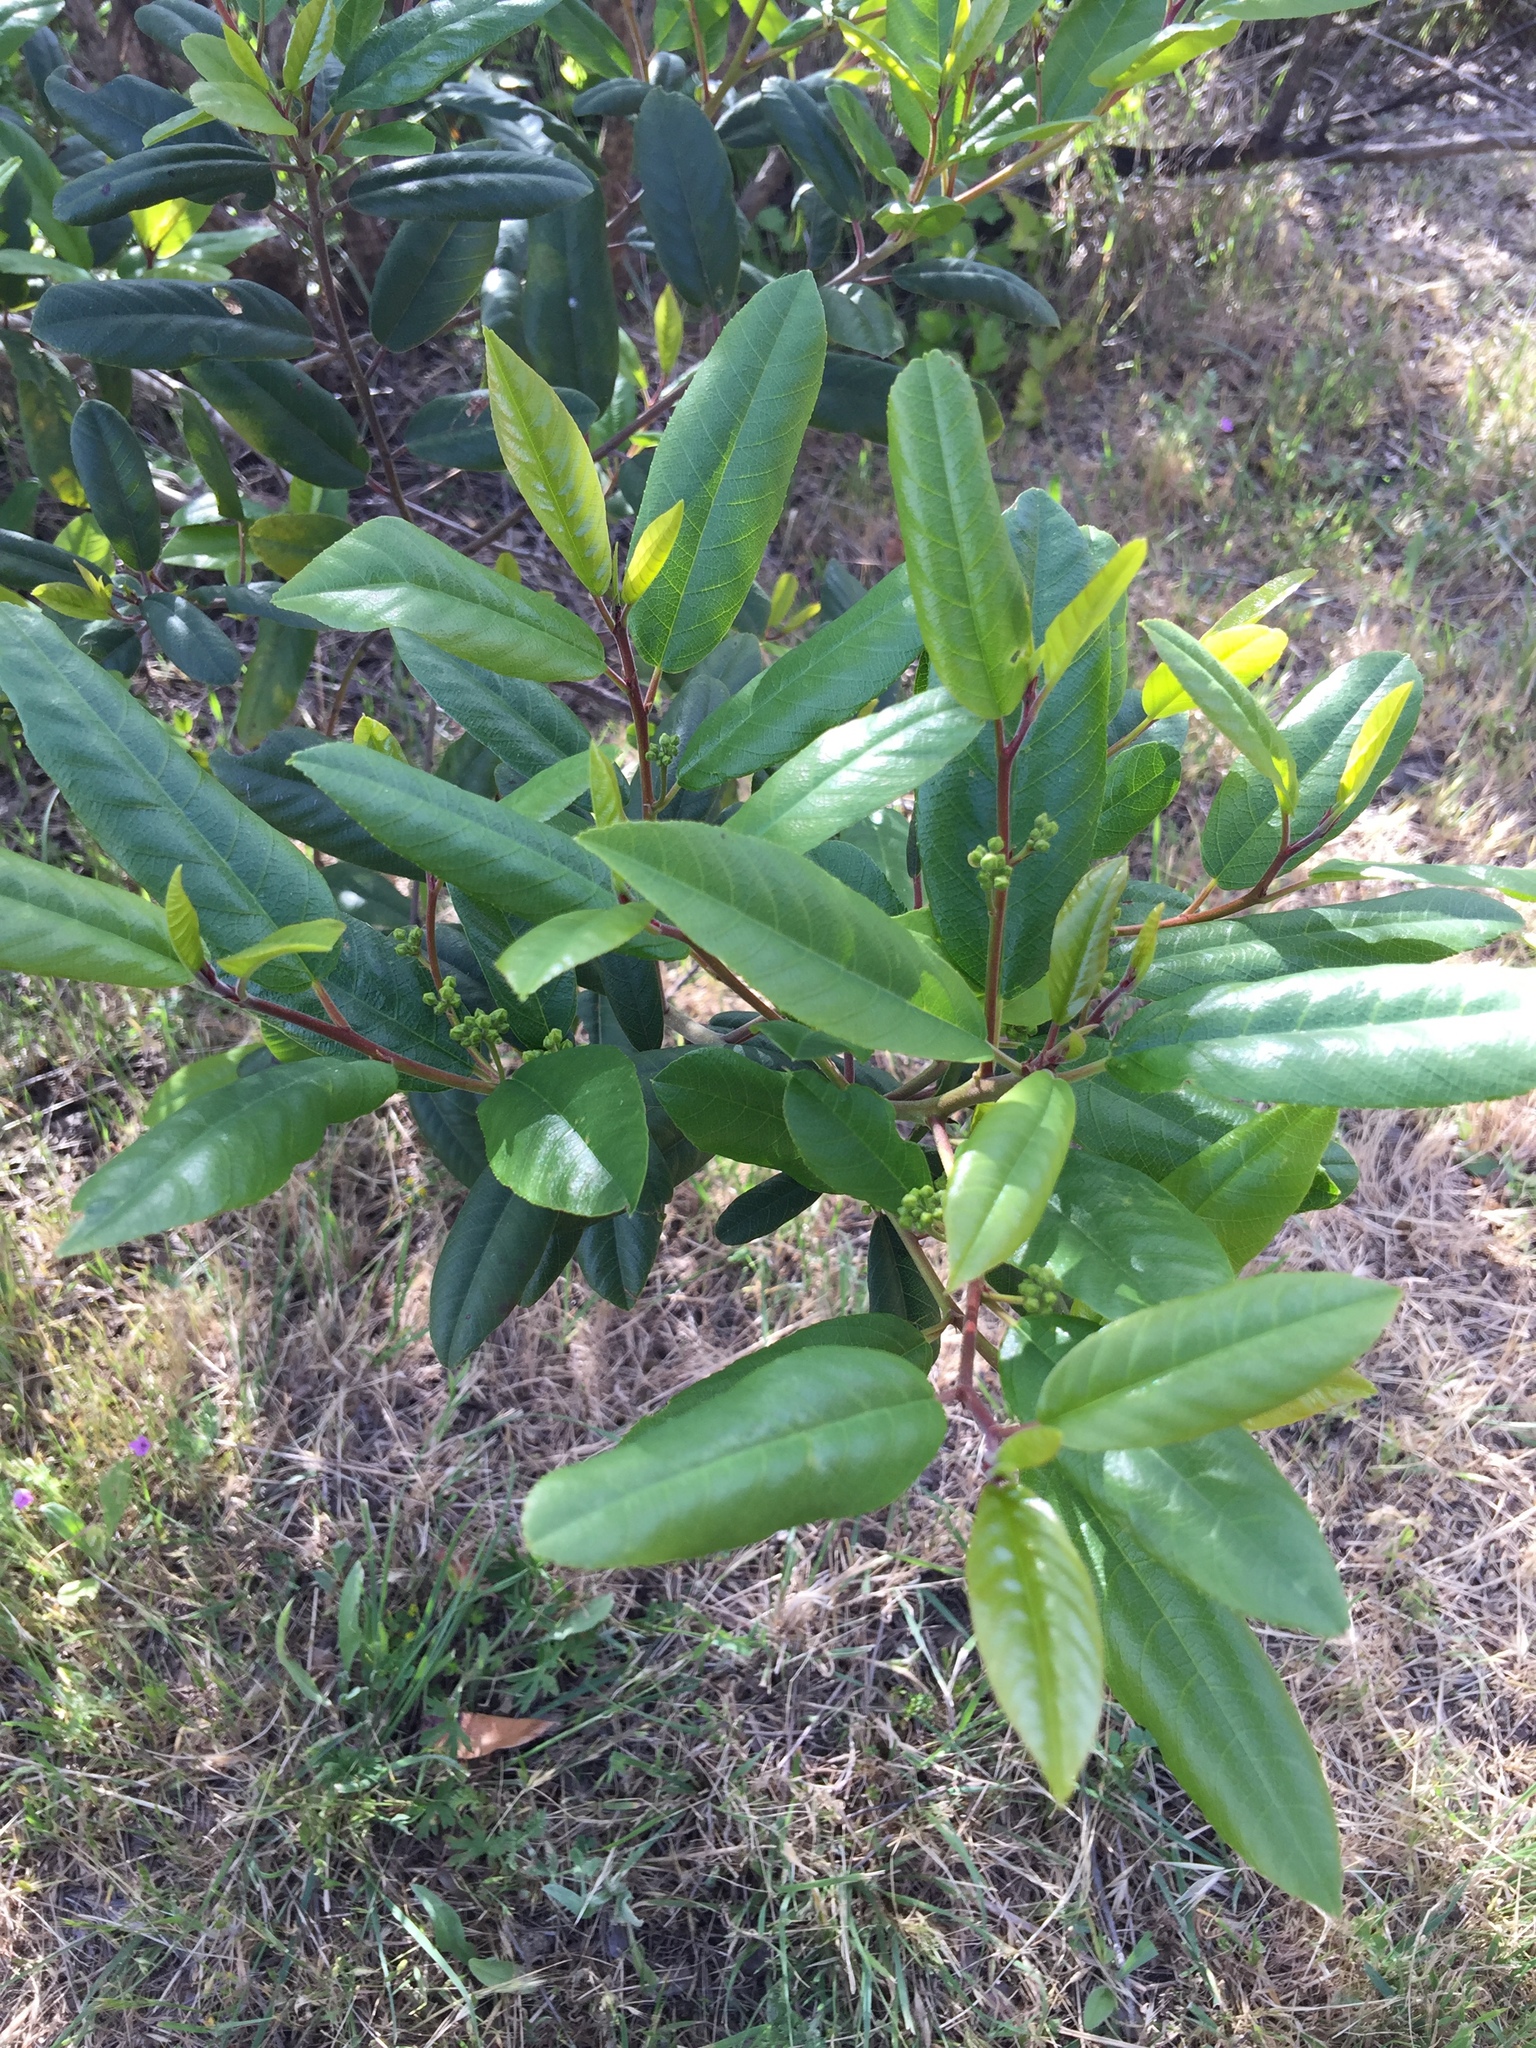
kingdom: Plantae
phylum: Tracheophyta
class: Magnoliopsida
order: Rosales
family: Rhamnaceae
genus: Frangula
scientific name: Frangula californica
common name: California buckthorn
